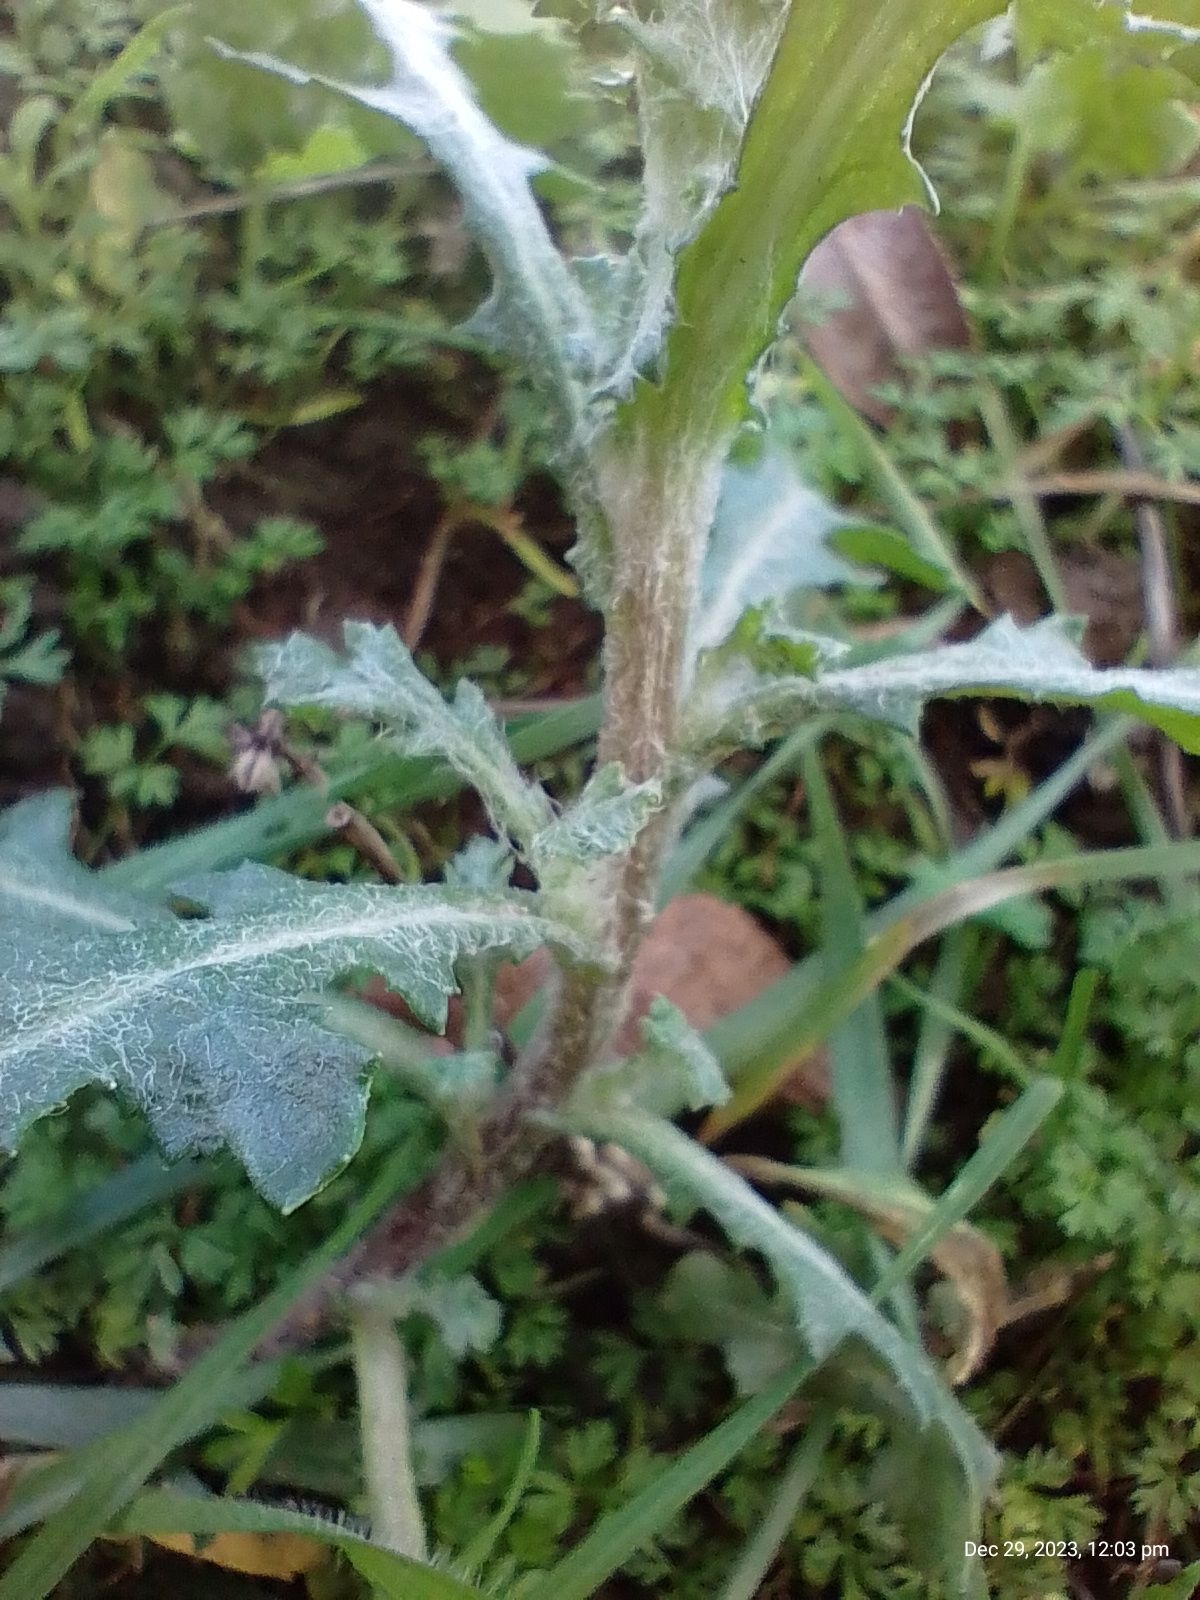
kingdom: Plantae
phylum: Tracheophyta
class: Magnoliopsida
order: Asterales
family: Asteraceae
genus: Senecio
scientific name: Senecio vulgaris
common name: Old-man-in-the-spring
